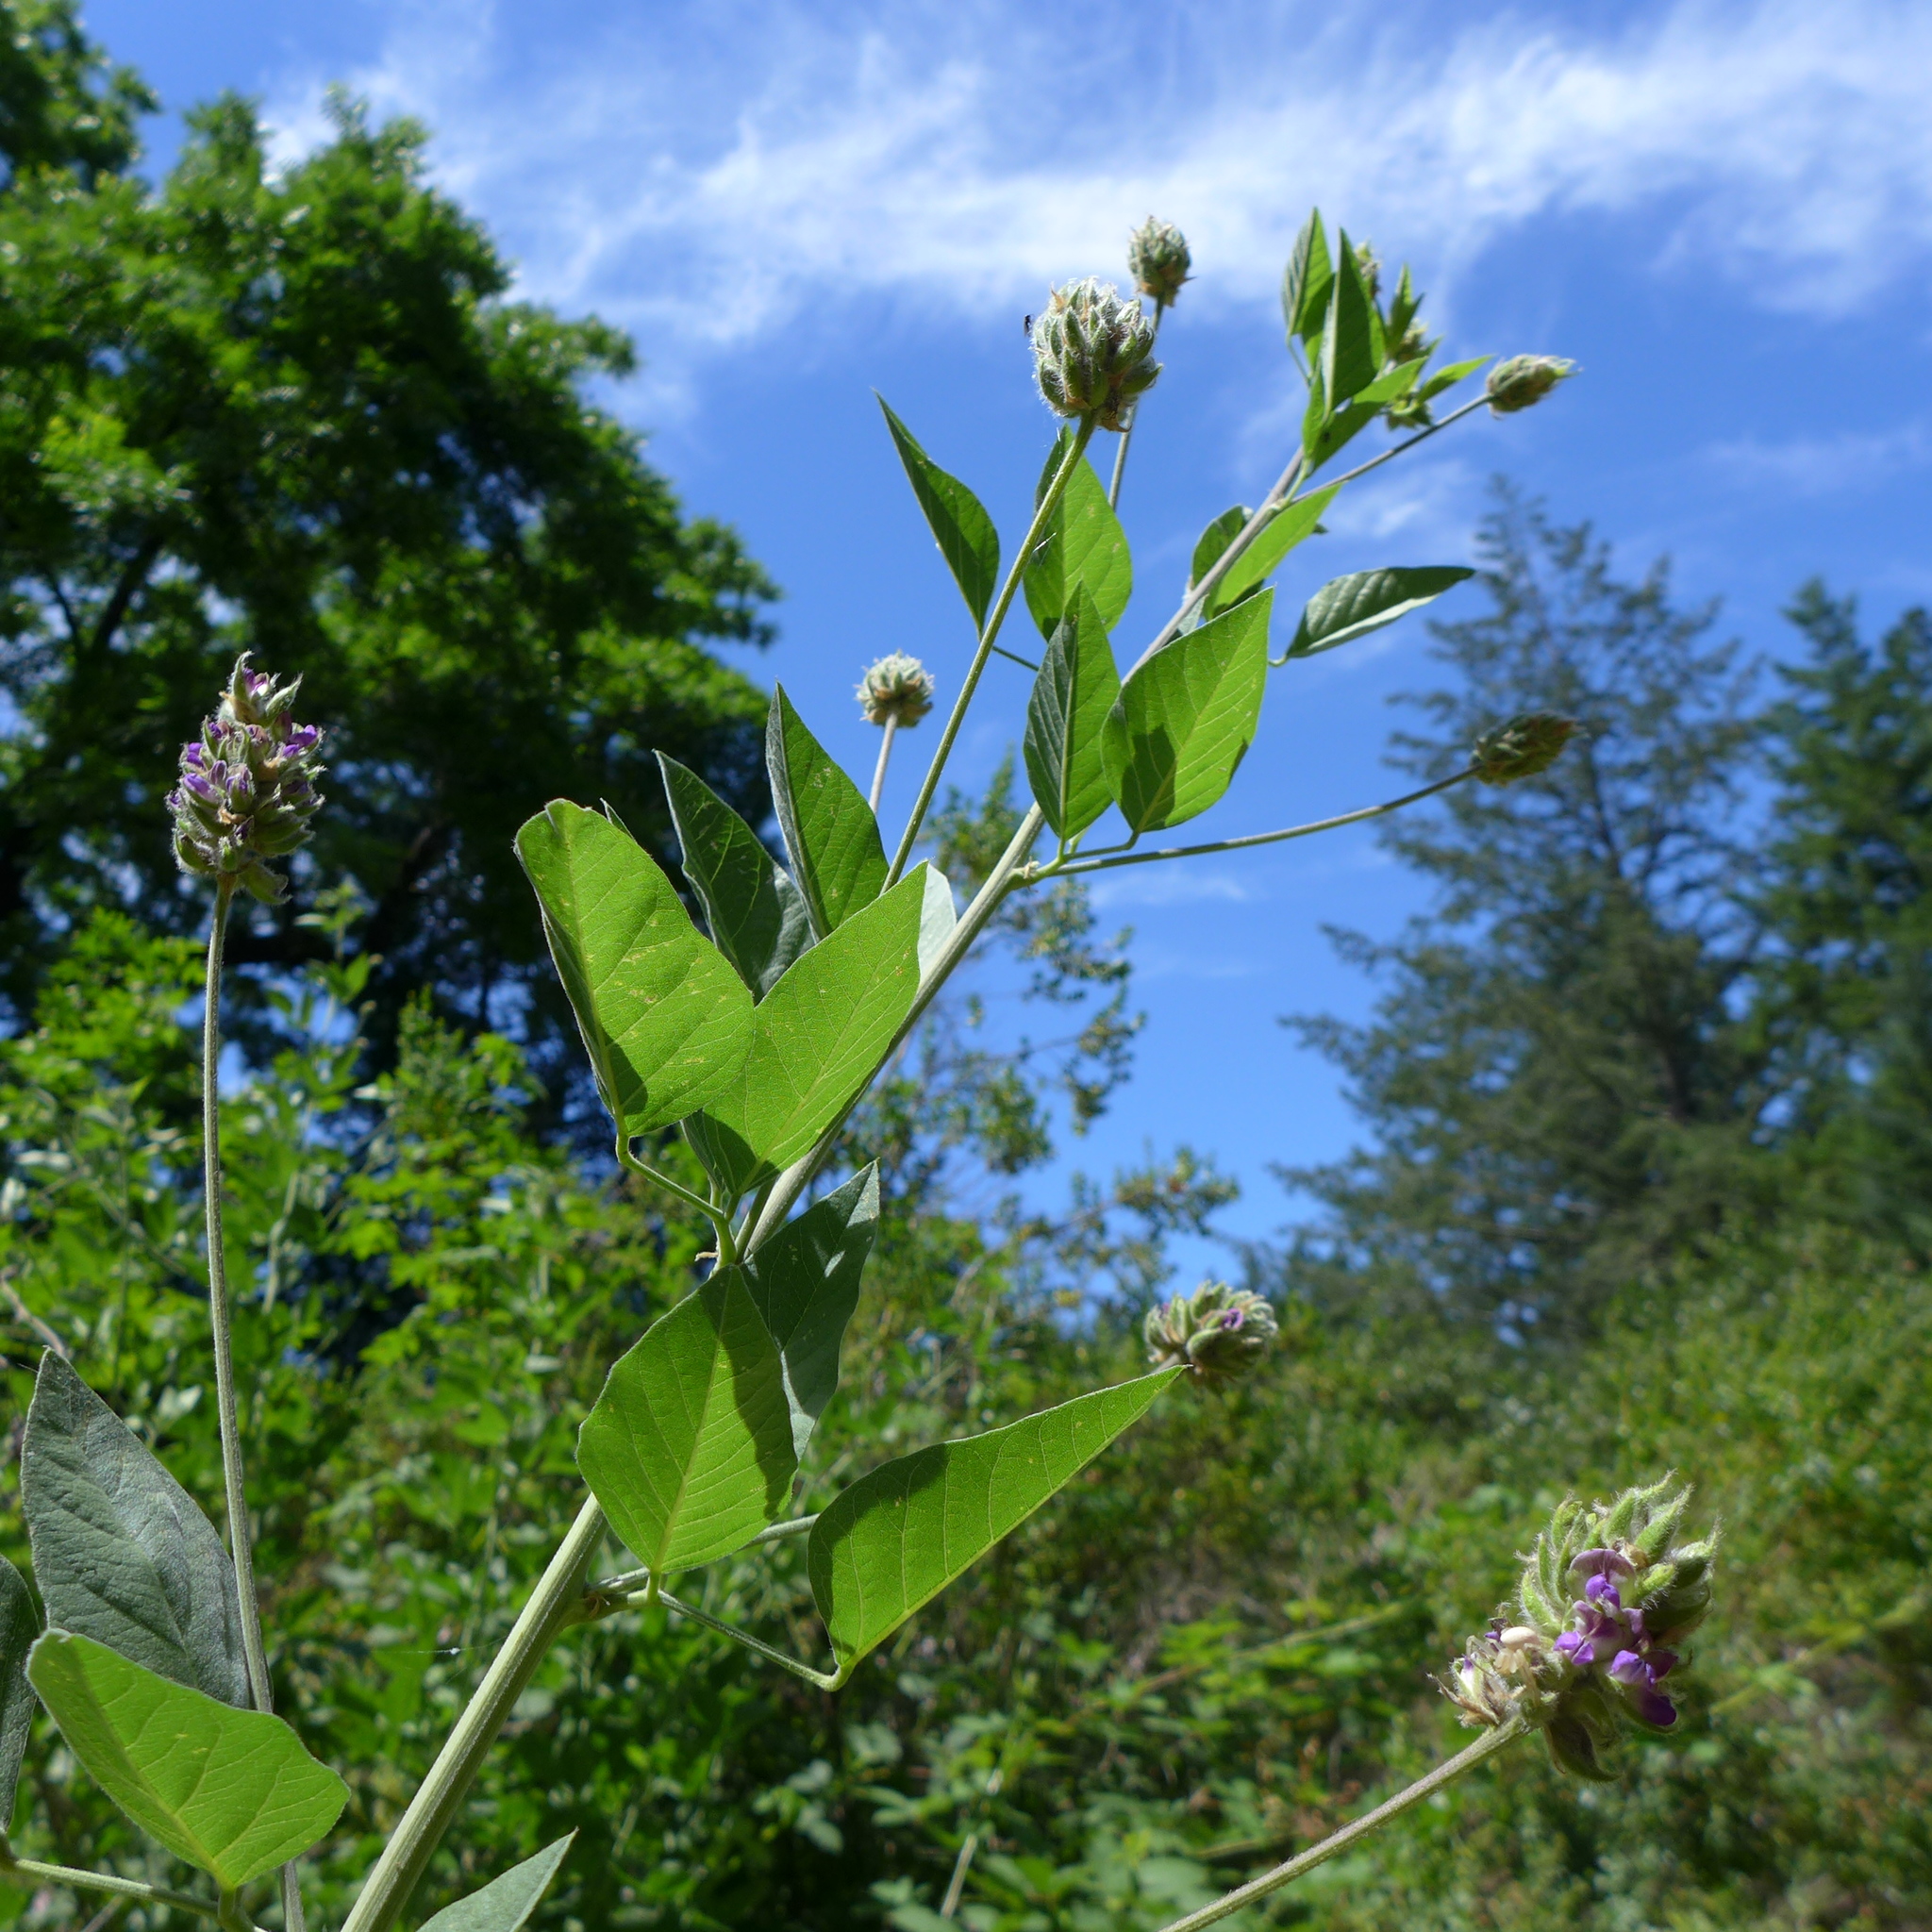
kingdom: Plantae
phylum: Tracheophyta
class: Magnoliopsida
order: Fabales
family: Fabaceae
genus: Hoita
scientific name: Hoita macrostachya
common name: Leatherroot
